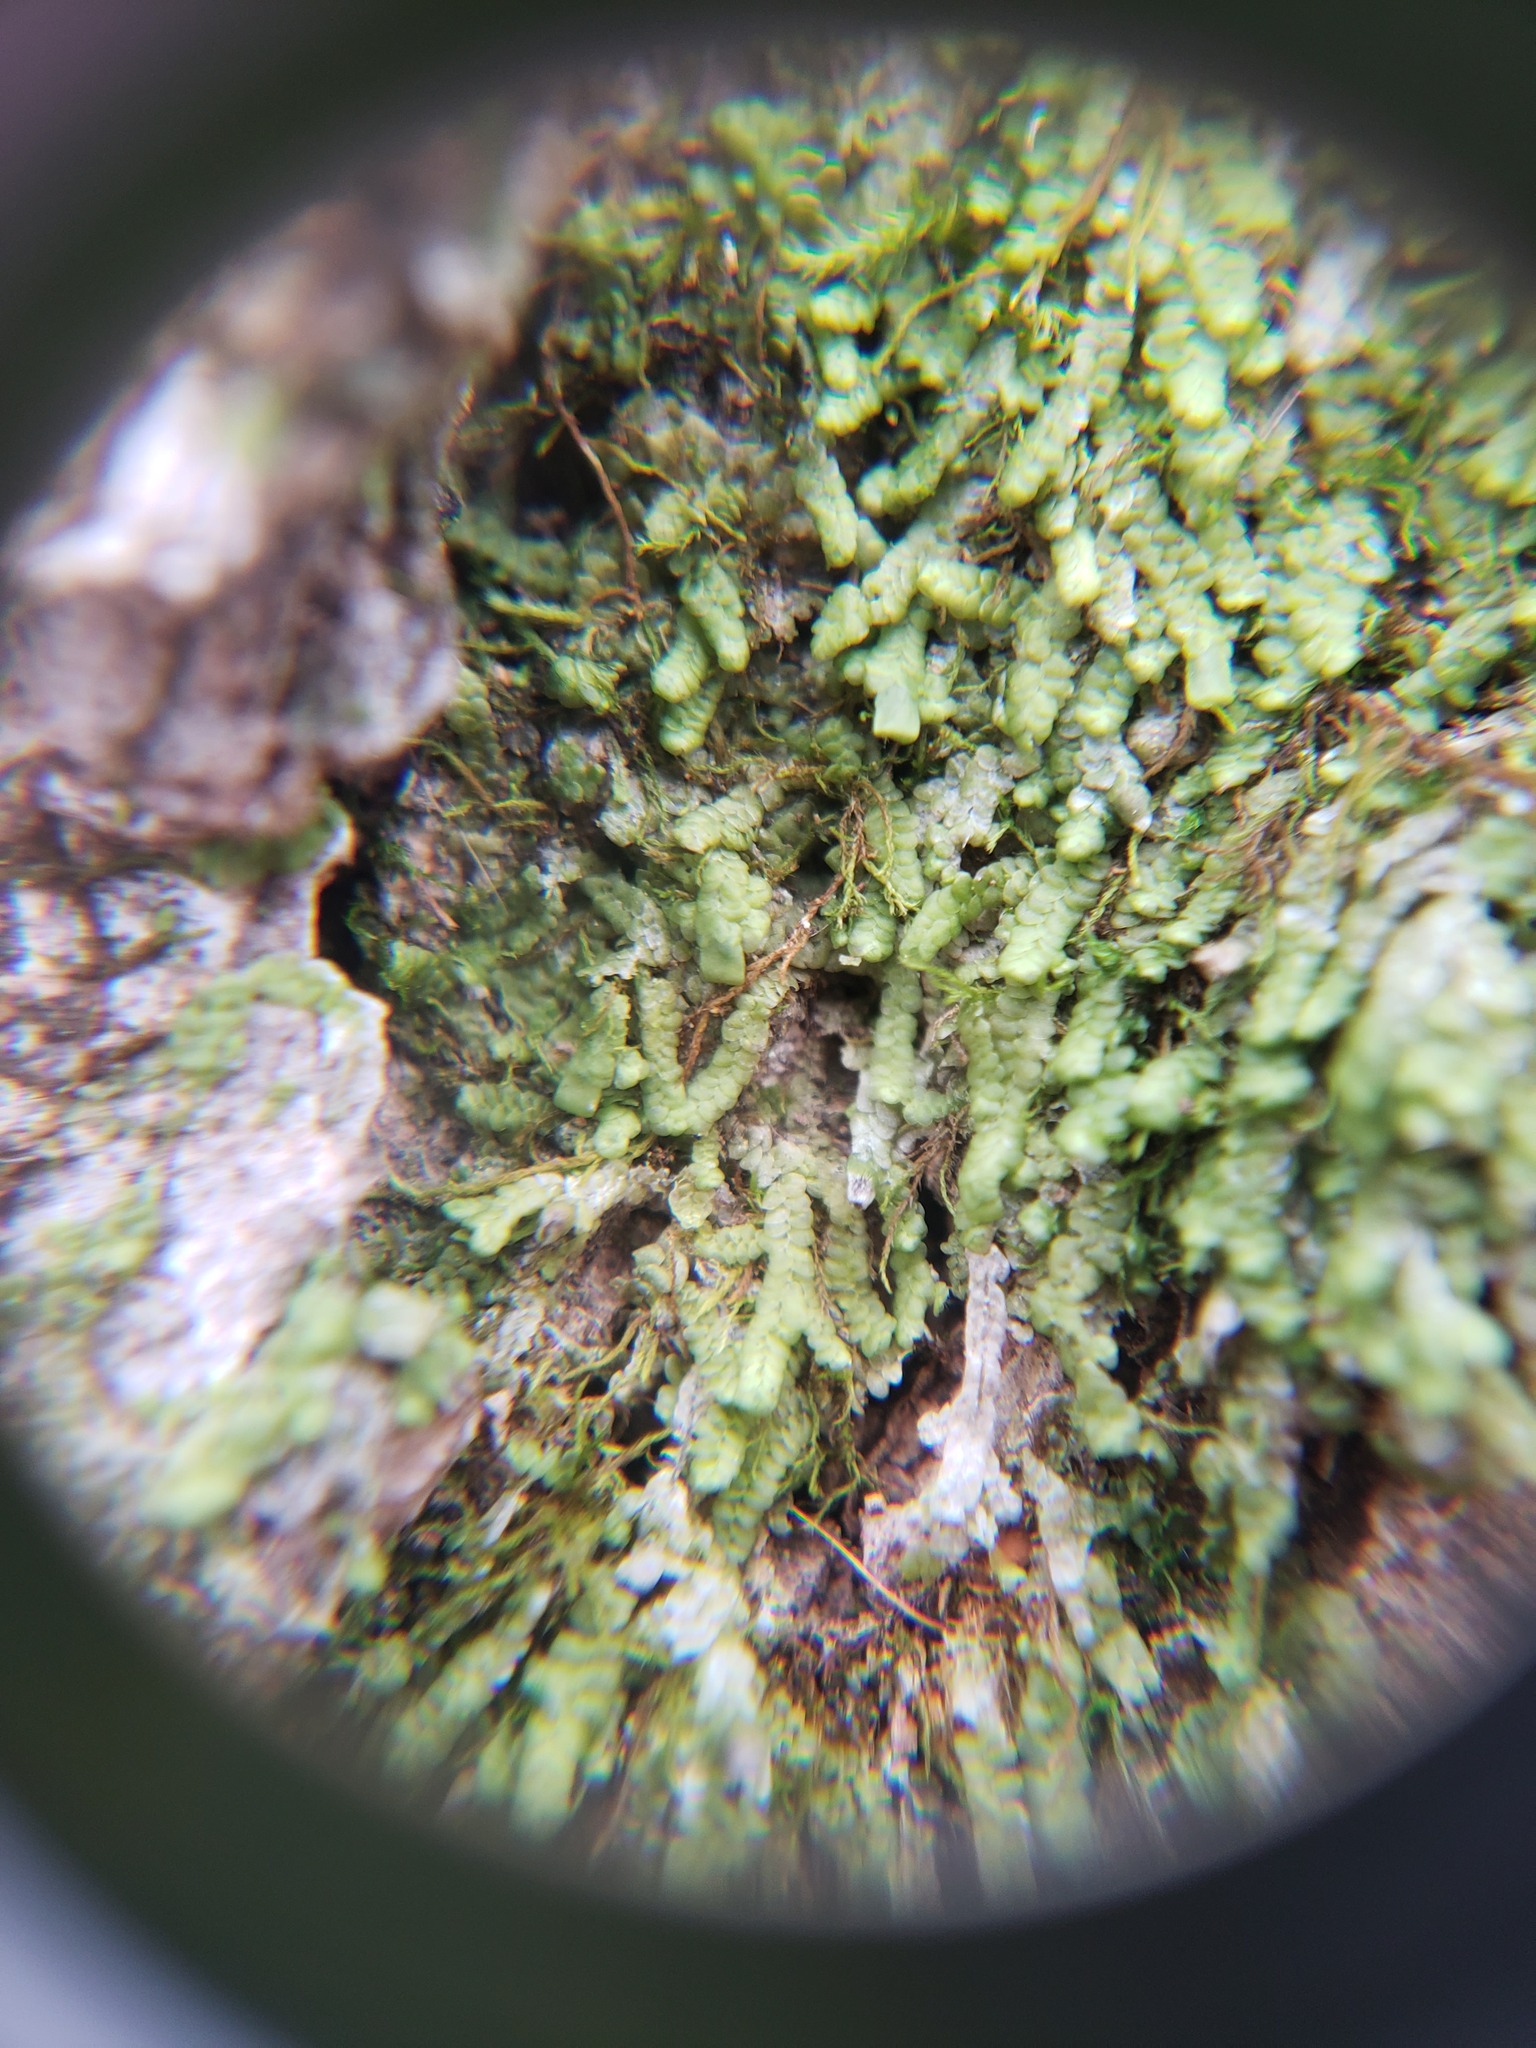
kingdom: Plantae
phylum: Marchantiophyta
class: Jungermanniopsida
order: Porellales
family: Radulaceae
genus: Radula
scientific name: Radula complanata
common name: Flat-leaved scalewort
